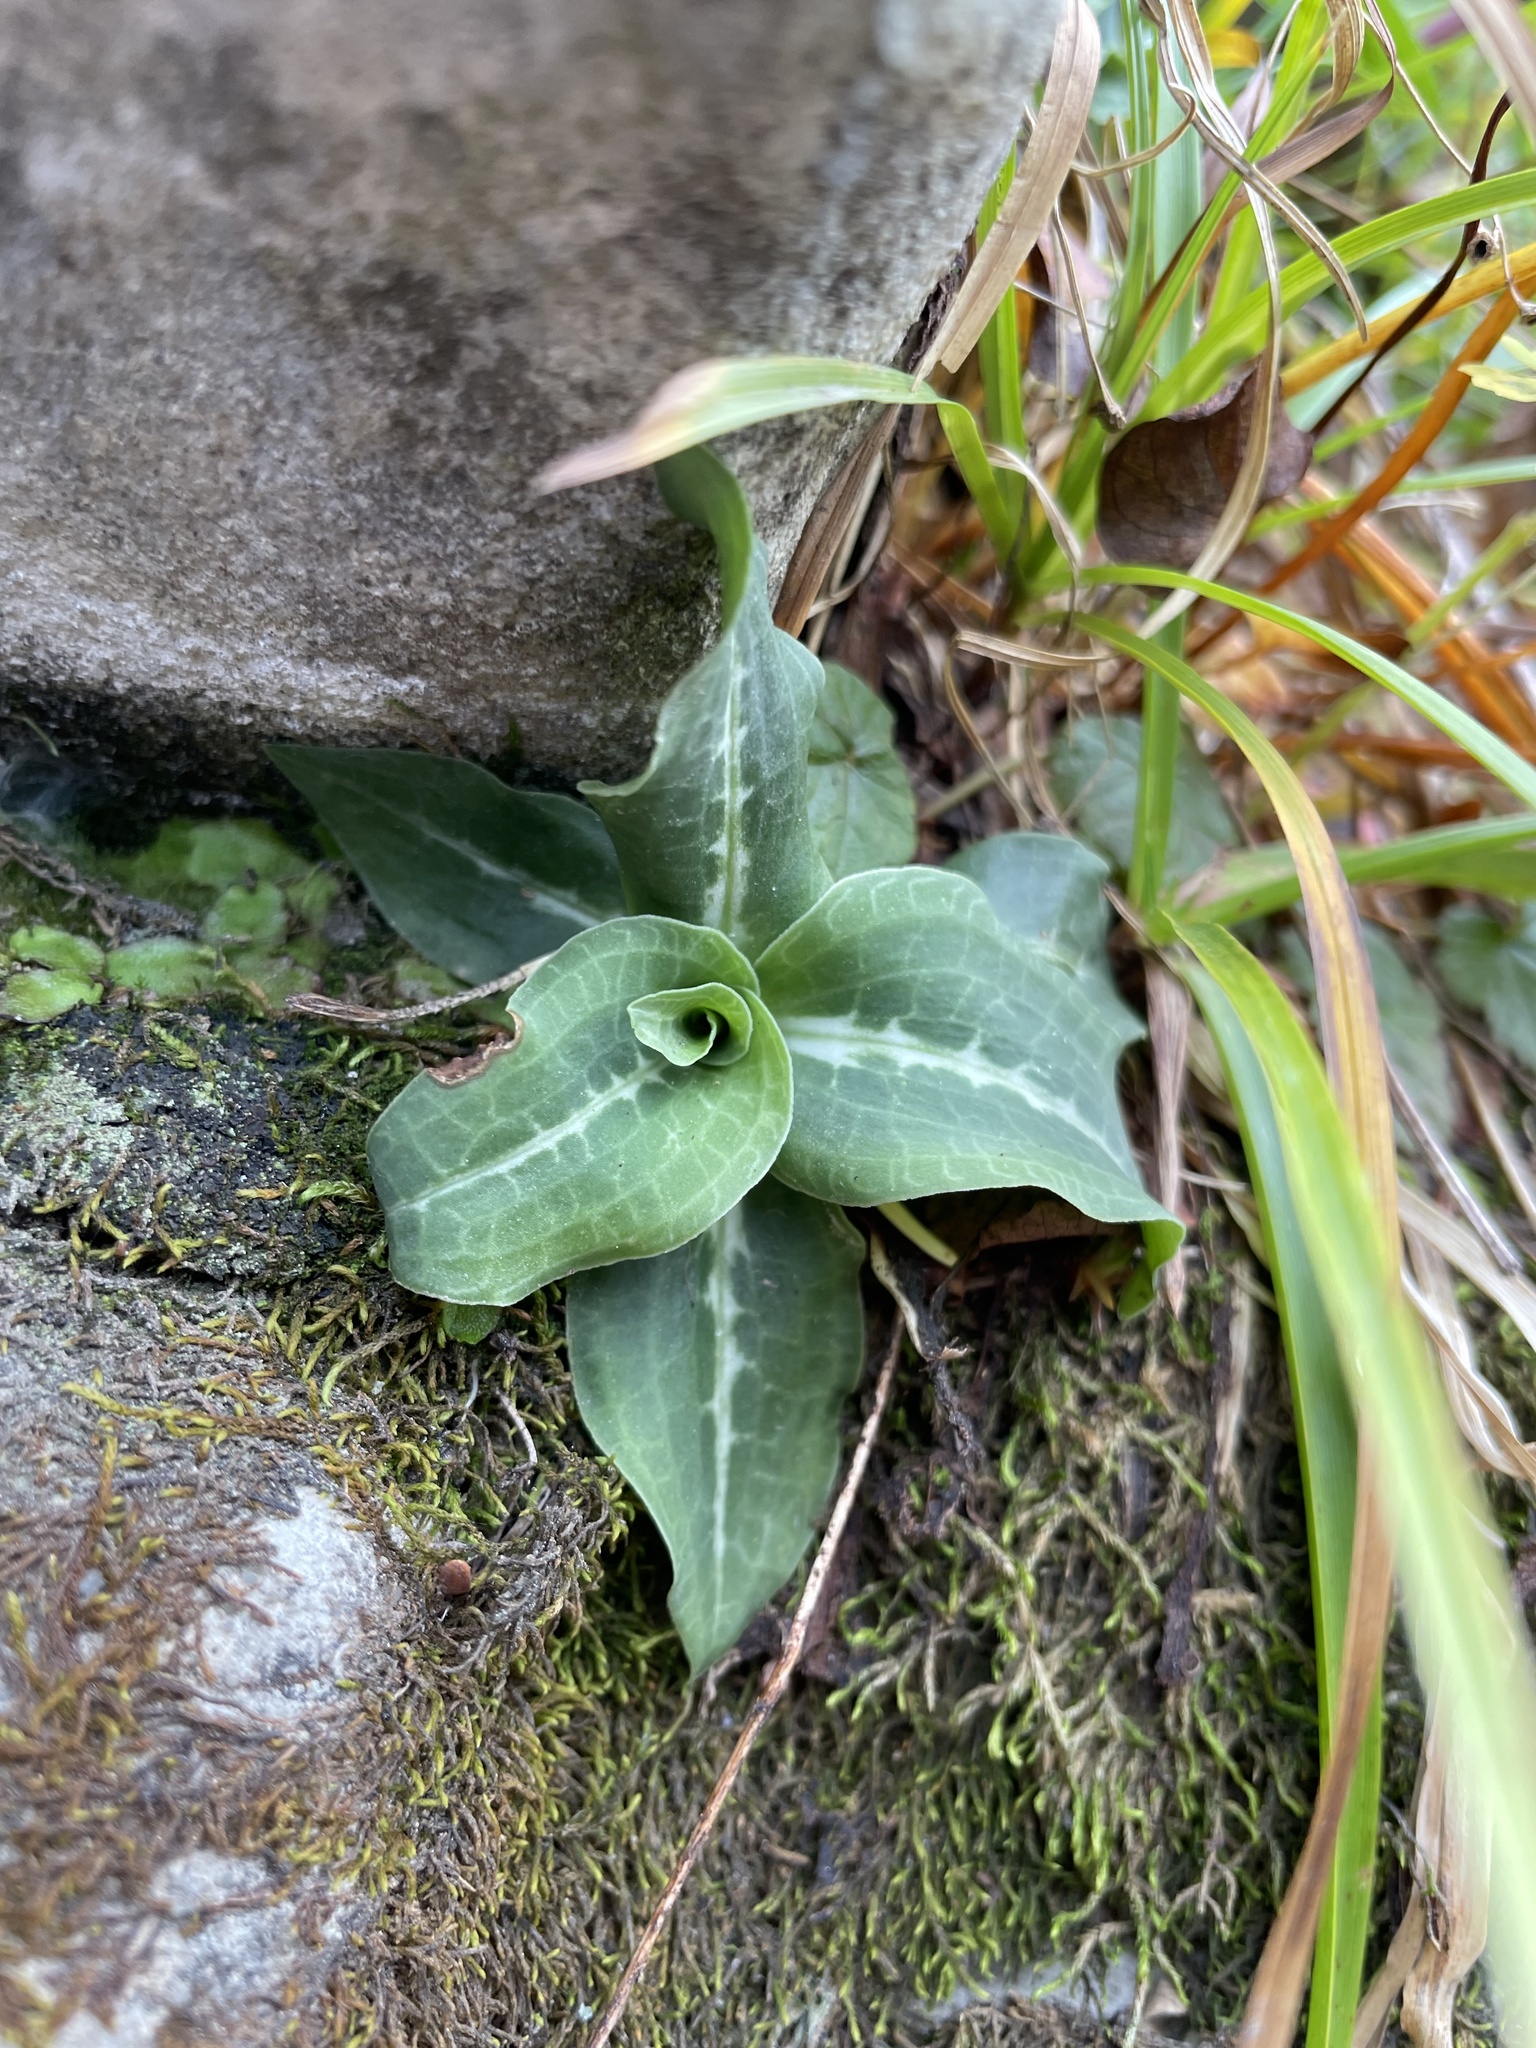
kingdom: Plantae
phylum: Tracheophyta
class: Liliopsida
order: Asparagales
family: Orchidaceae
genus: Goodyera
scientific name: Goodyera oblongifolia
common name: Giant rattlesnake-plantain
